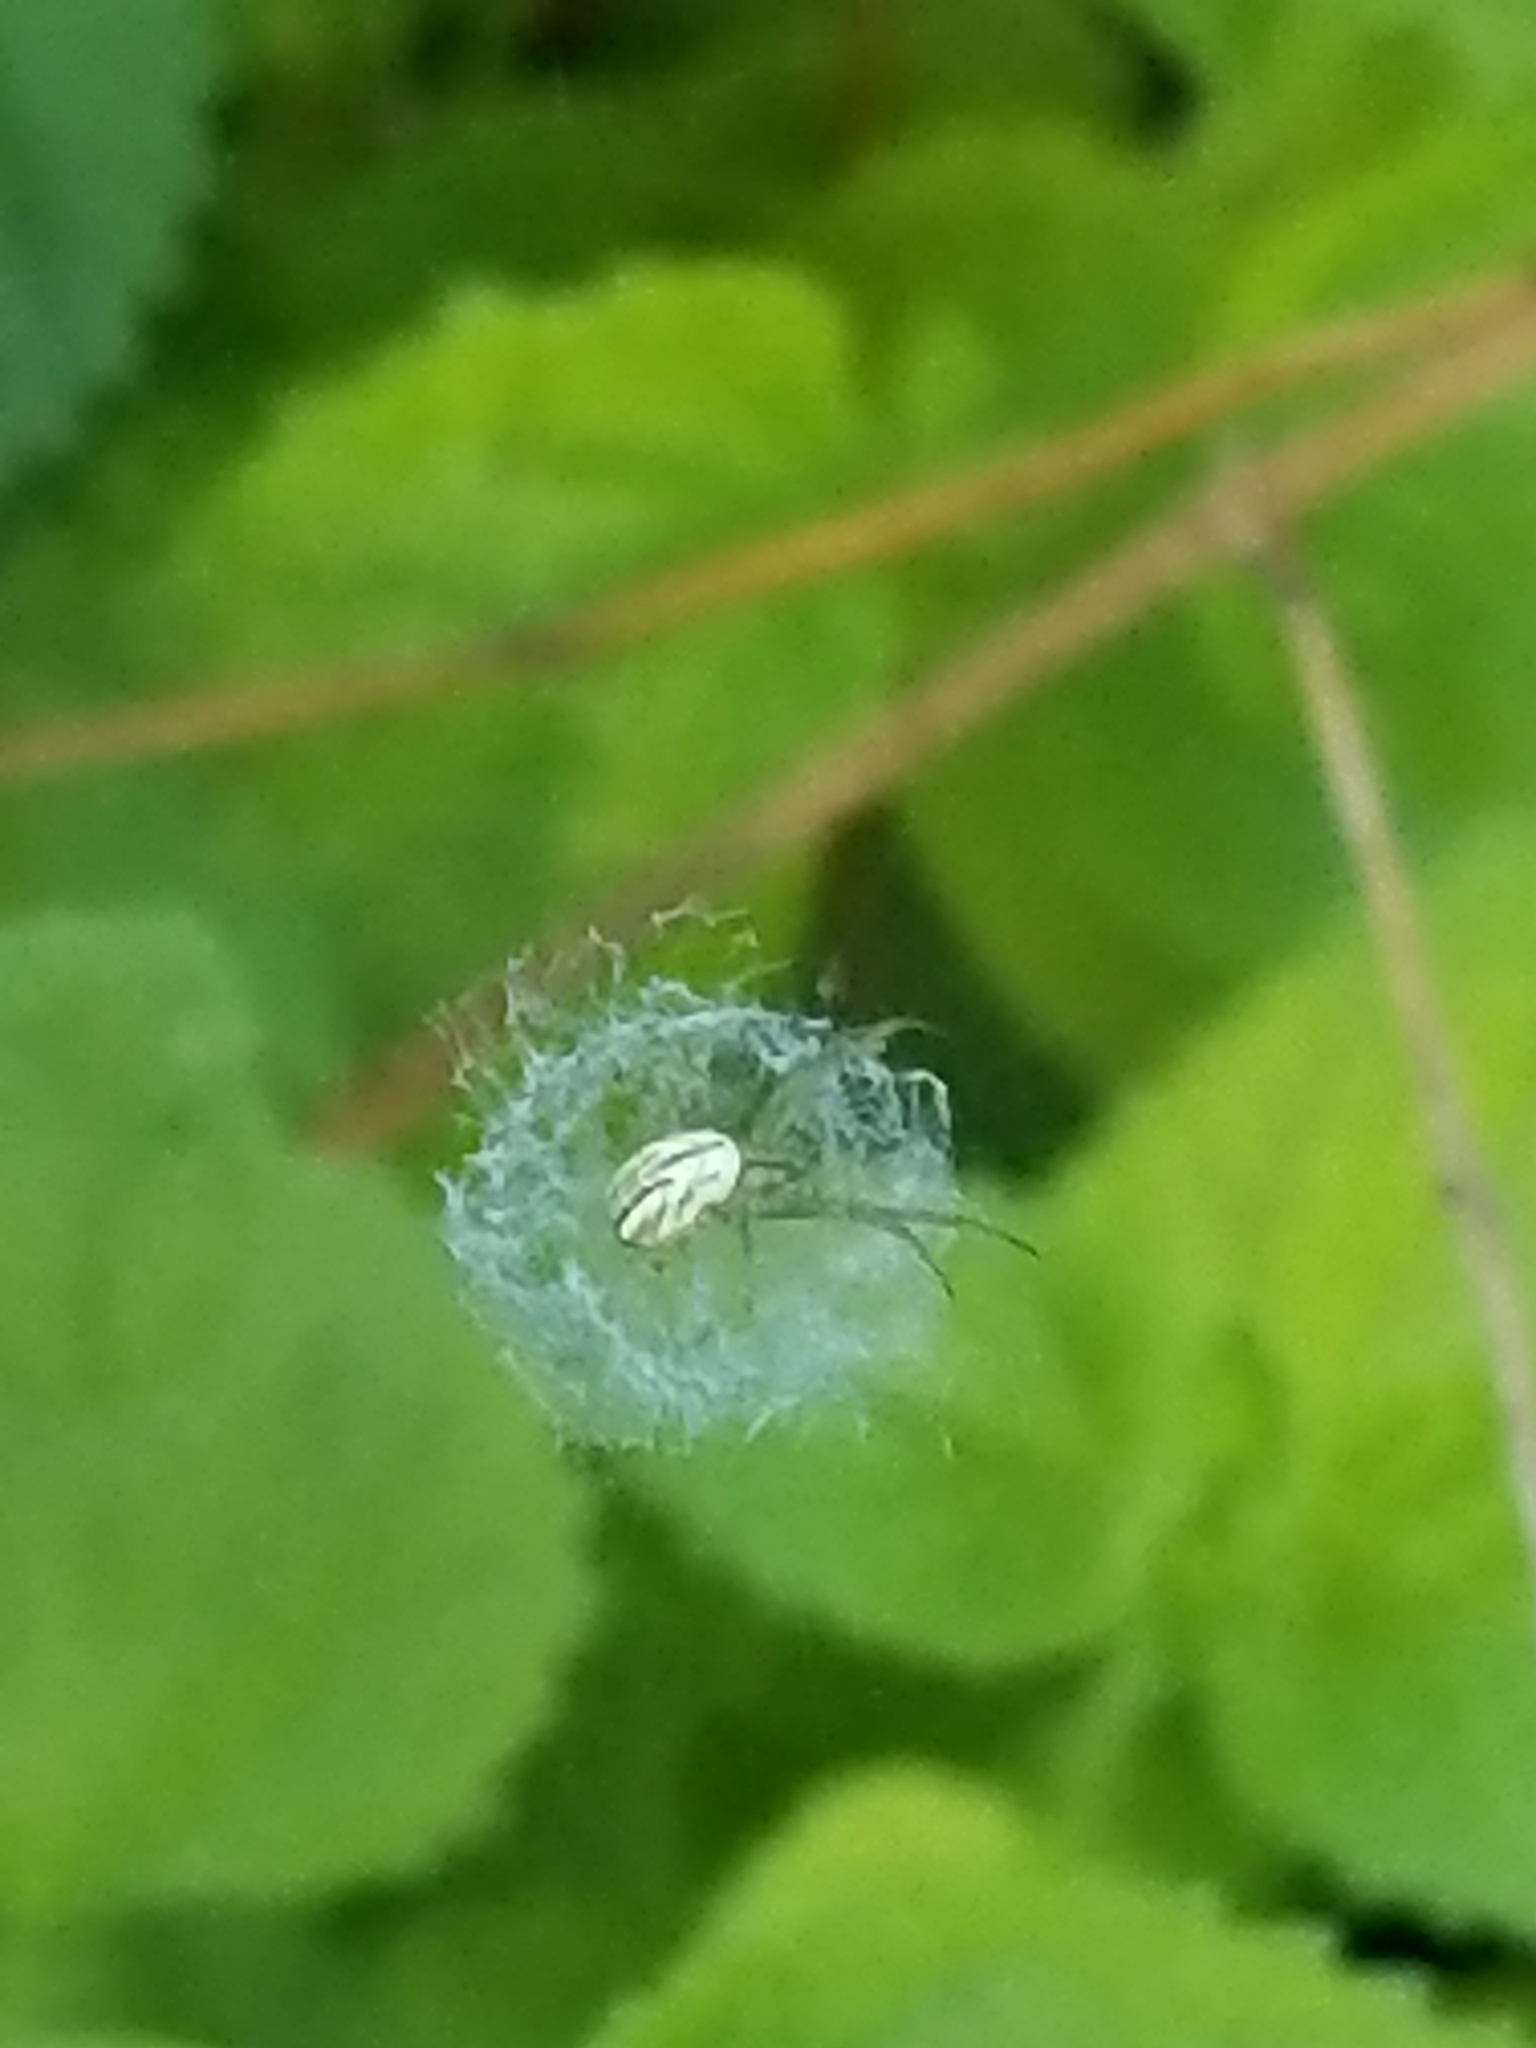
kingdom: Animalia
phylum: Arthropoda
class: Arachnida
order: Araneae
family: Araneidae
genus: Mangora
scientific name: Mangora gibberosa
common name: Lined orbweaver
